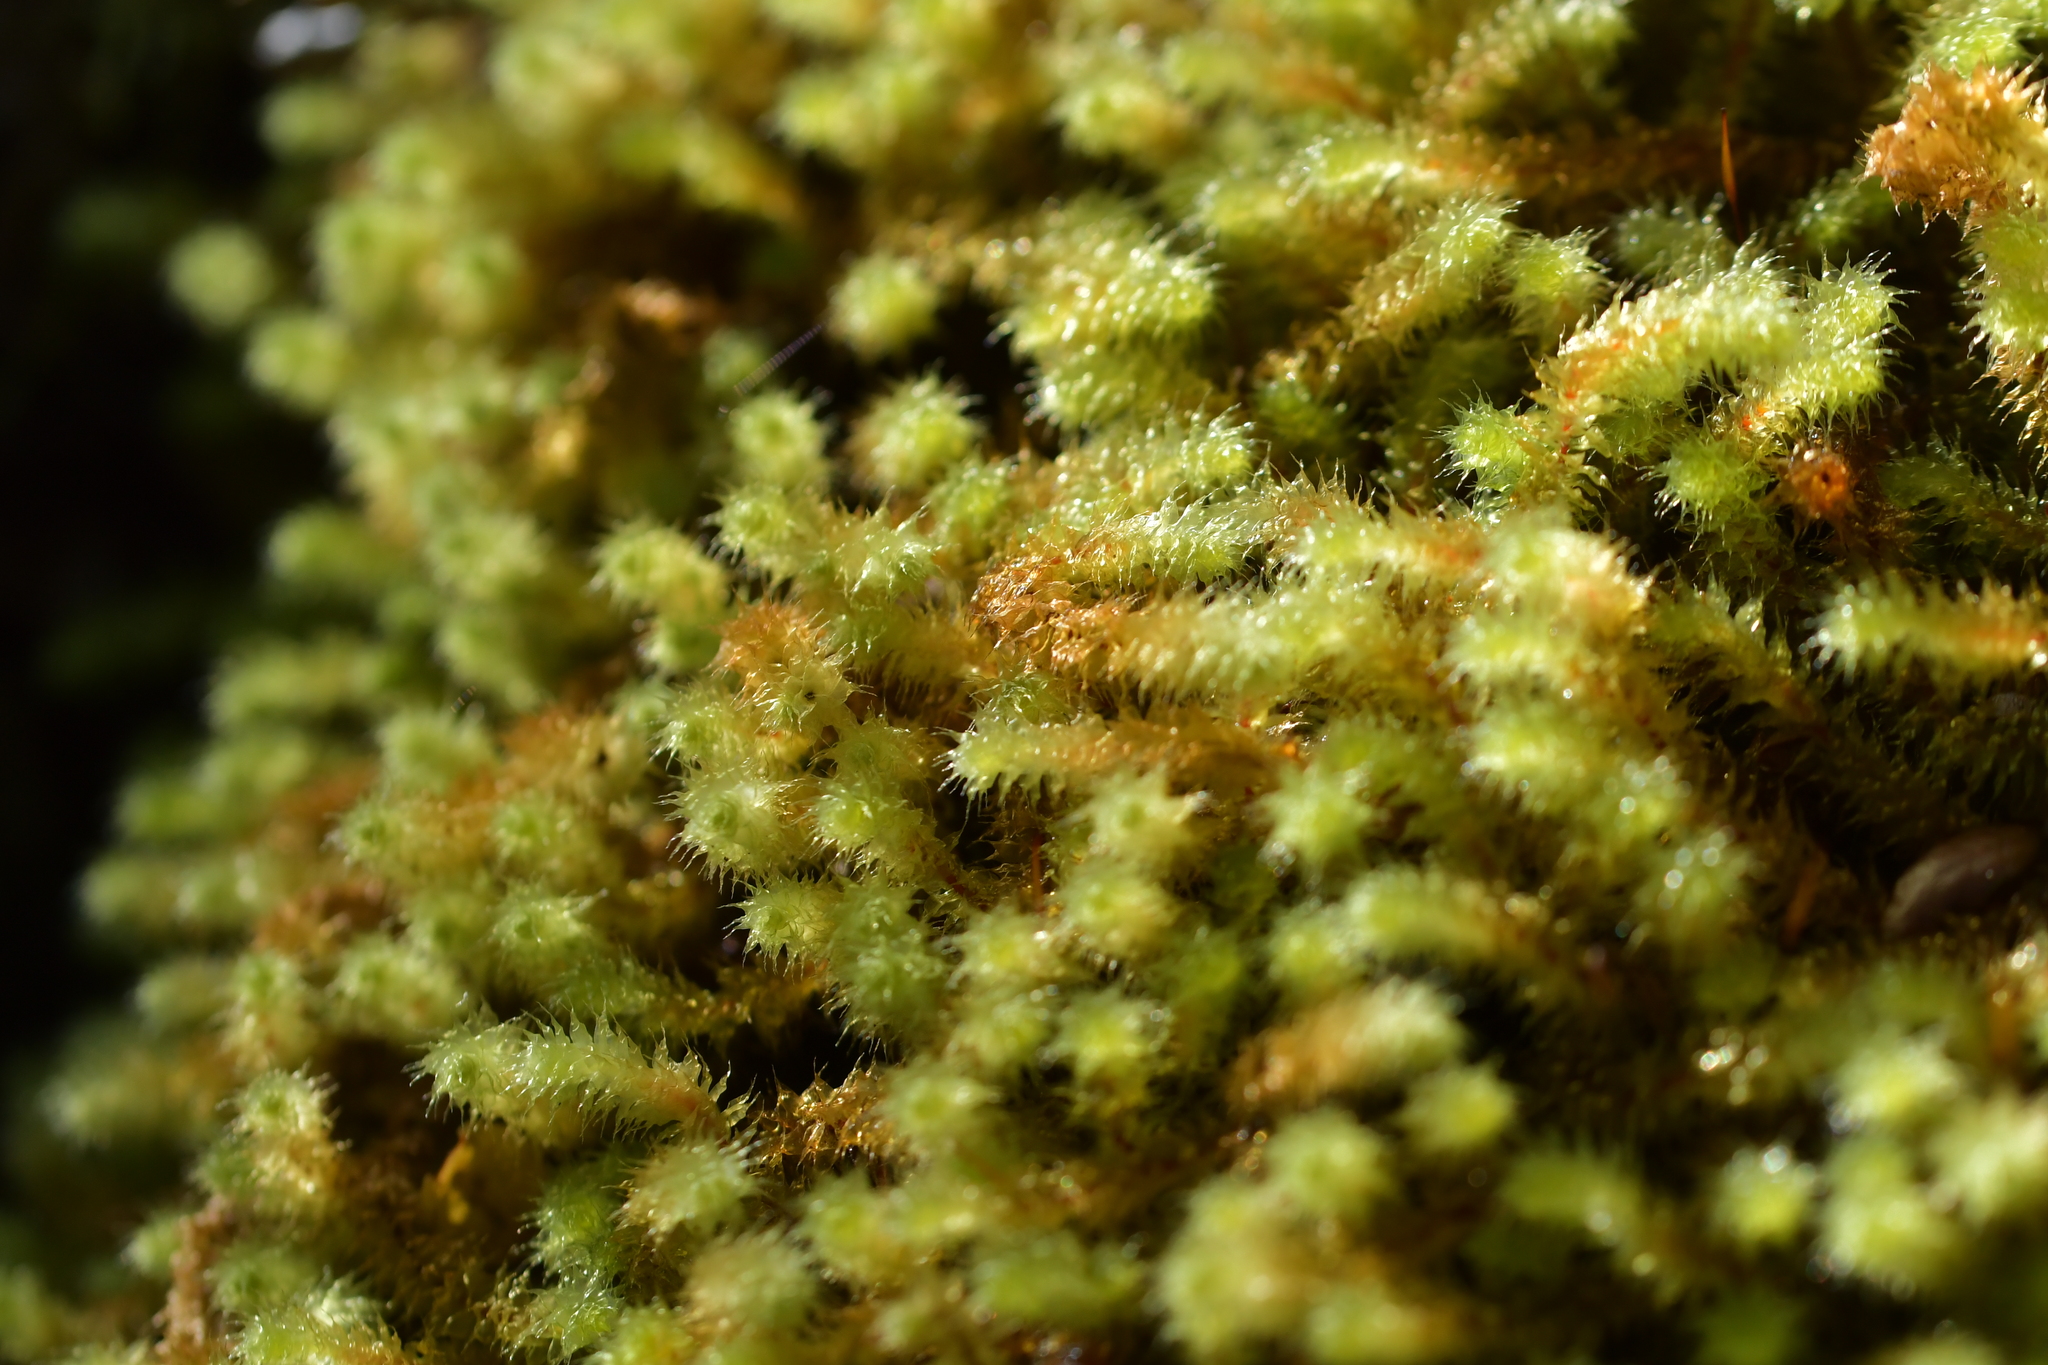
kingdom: Plantae
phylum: Bryophyta
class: Bryopsida
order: Ptychomniales
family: Ptychomniaceae
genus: Ptychomnion
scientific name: Ptychomnion aciculare
